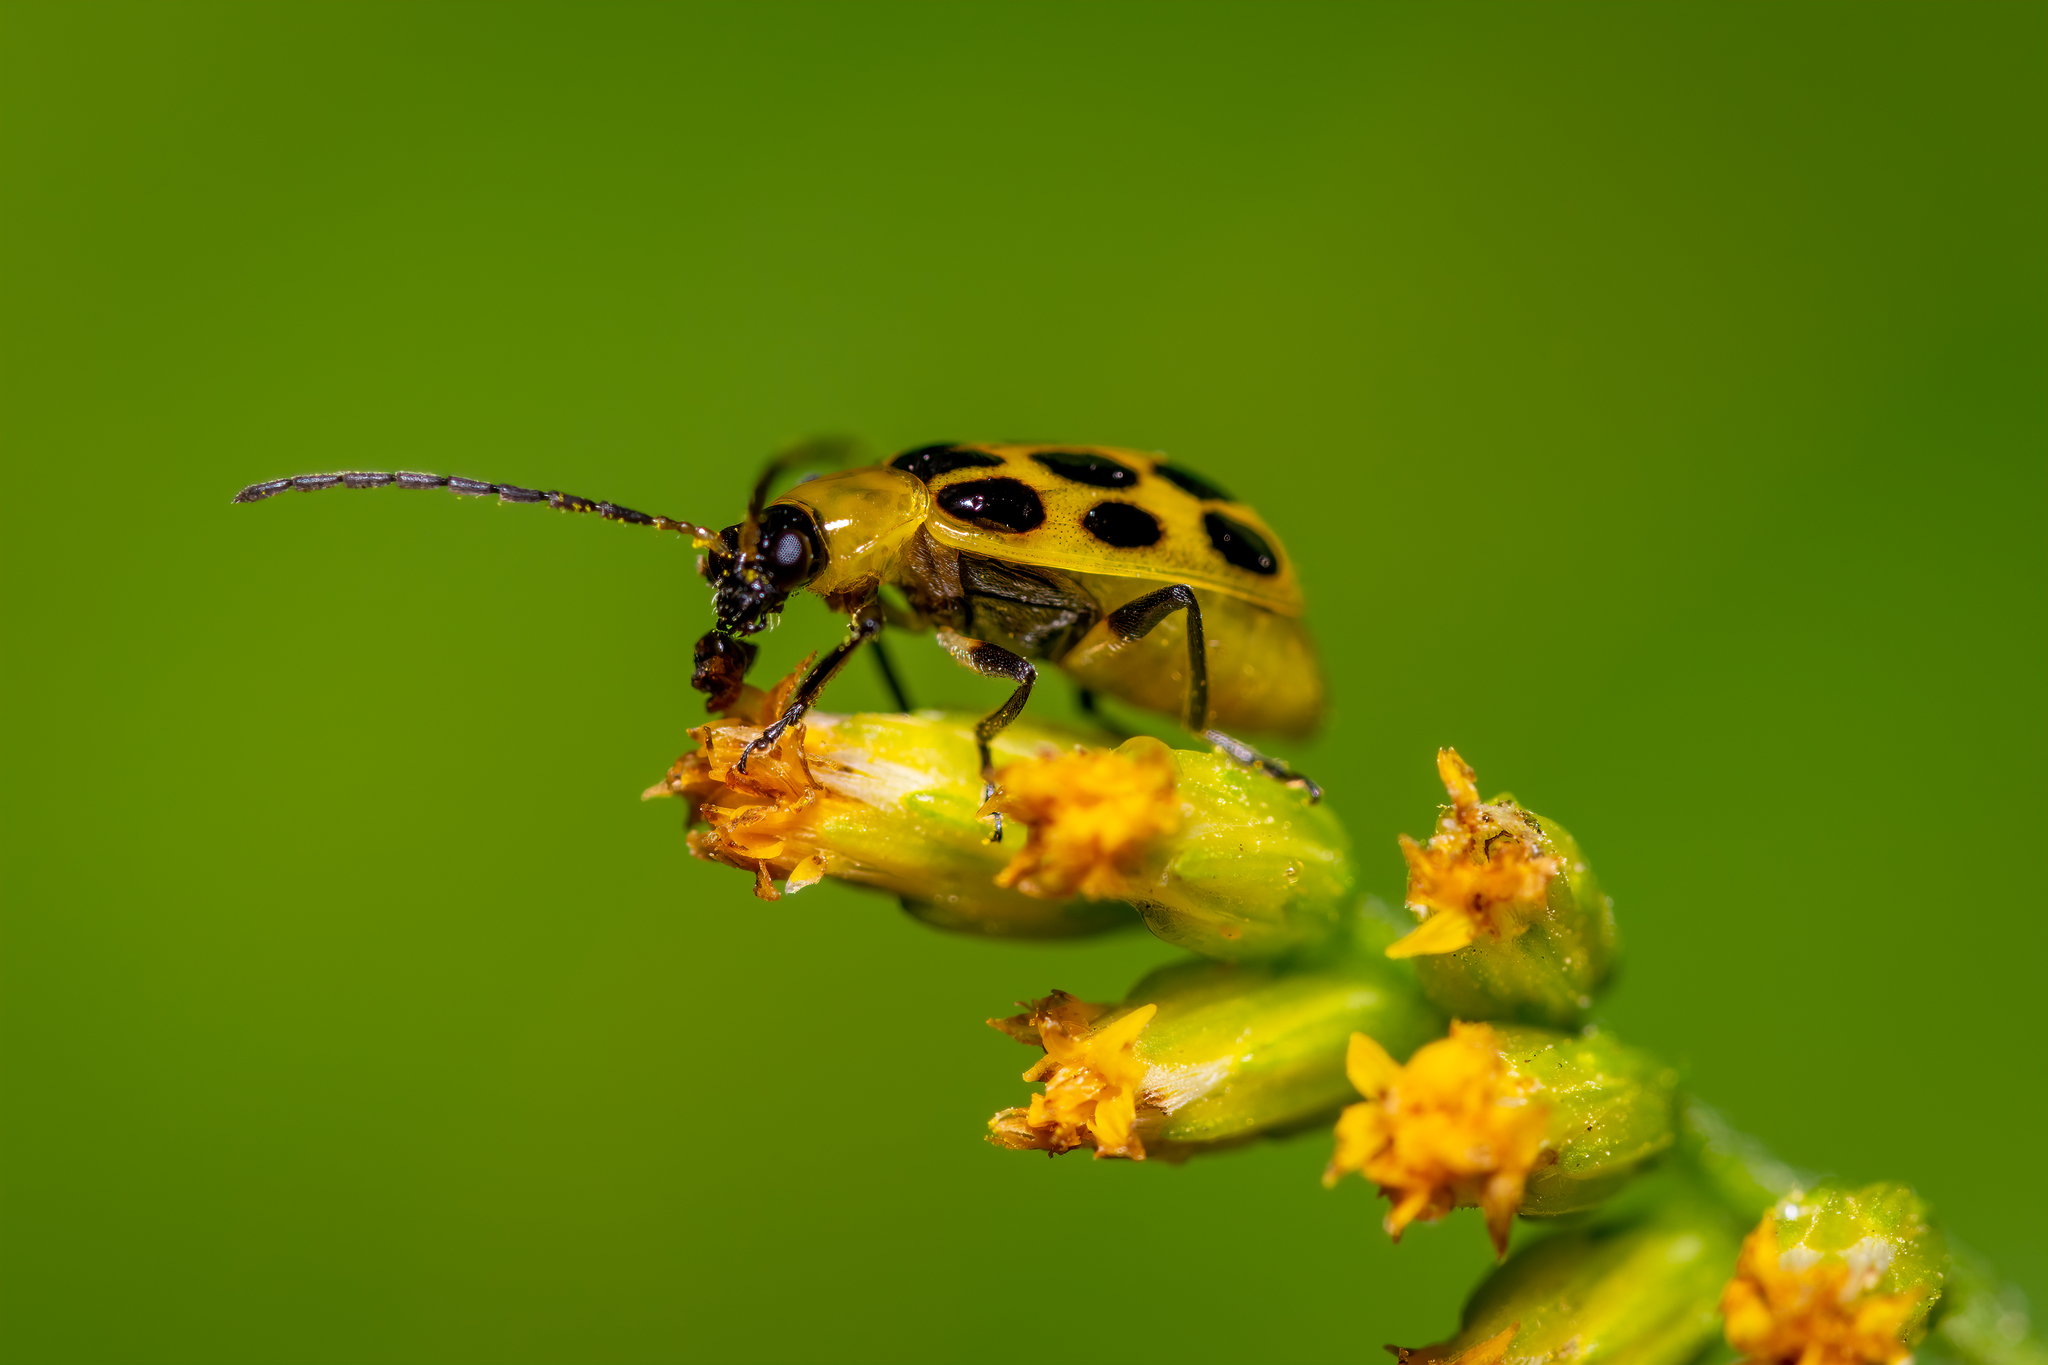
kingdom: Animalia
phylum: Arthropoda
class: Insecta
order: Coleoptera
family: Chrysomelidae
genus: Diabrotica
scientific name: Diabrotica undecimpunctata
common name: Spotted cucumber beetle
